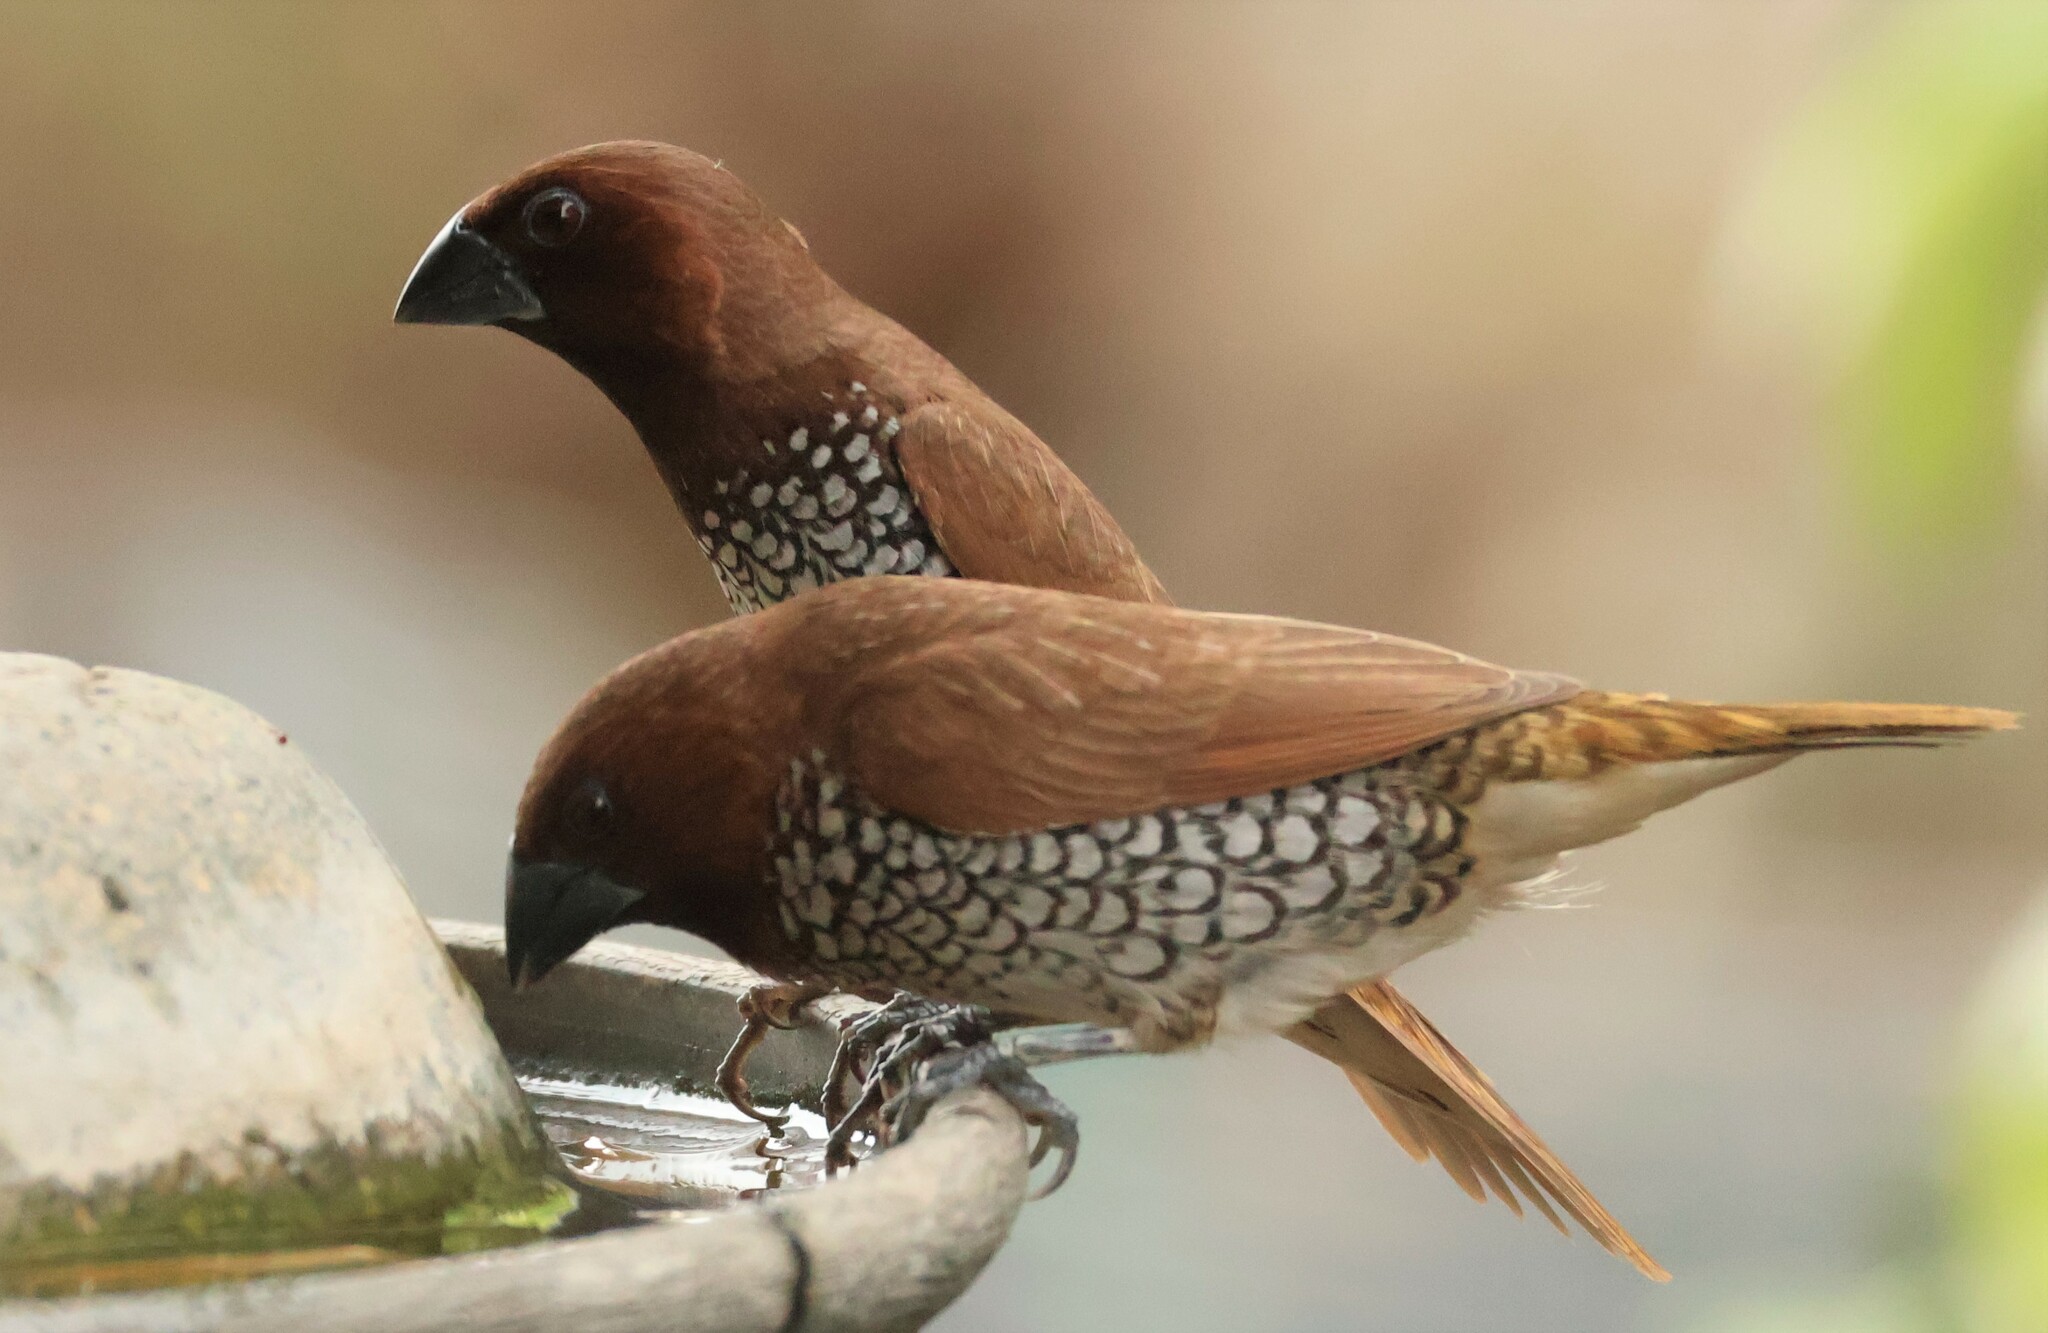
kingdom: Animalia
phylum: Chordata
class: Aves
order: Passeriformes
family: Estrildidae
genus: Lonchura
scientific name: Lonchura punctulata
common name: Scaly-breasted munia
